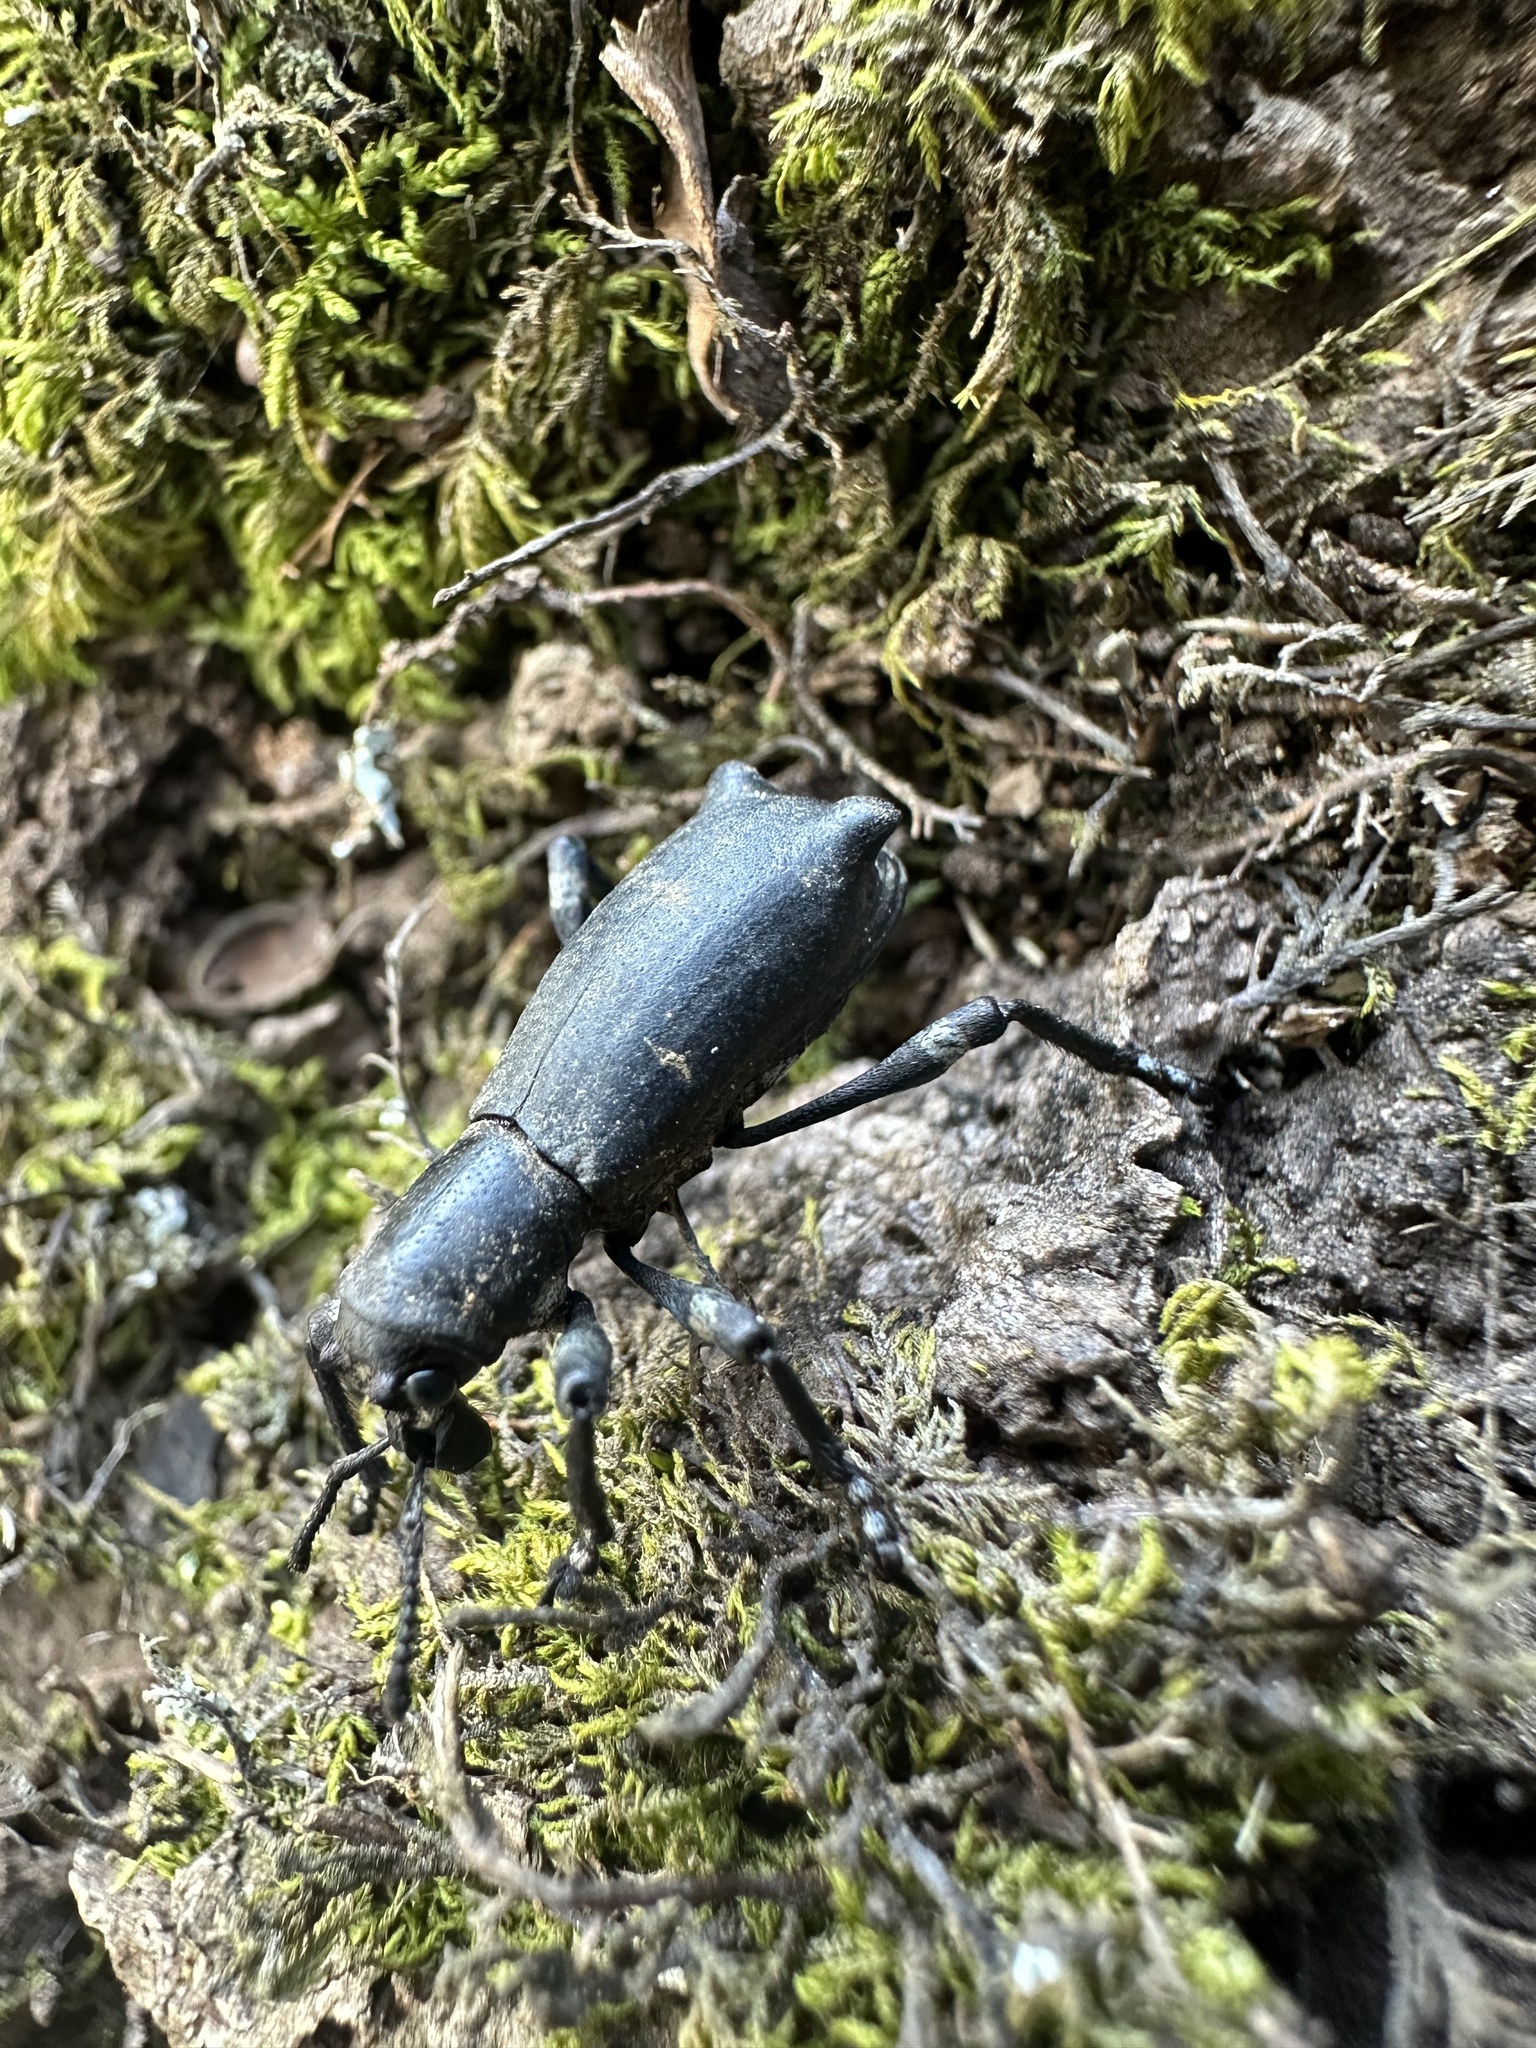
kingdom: Animalia
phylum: Arthropoda
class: Insecta
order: Coleoptera
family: Curculionidae
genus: Aegorhinus
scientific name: Aegorhinus
